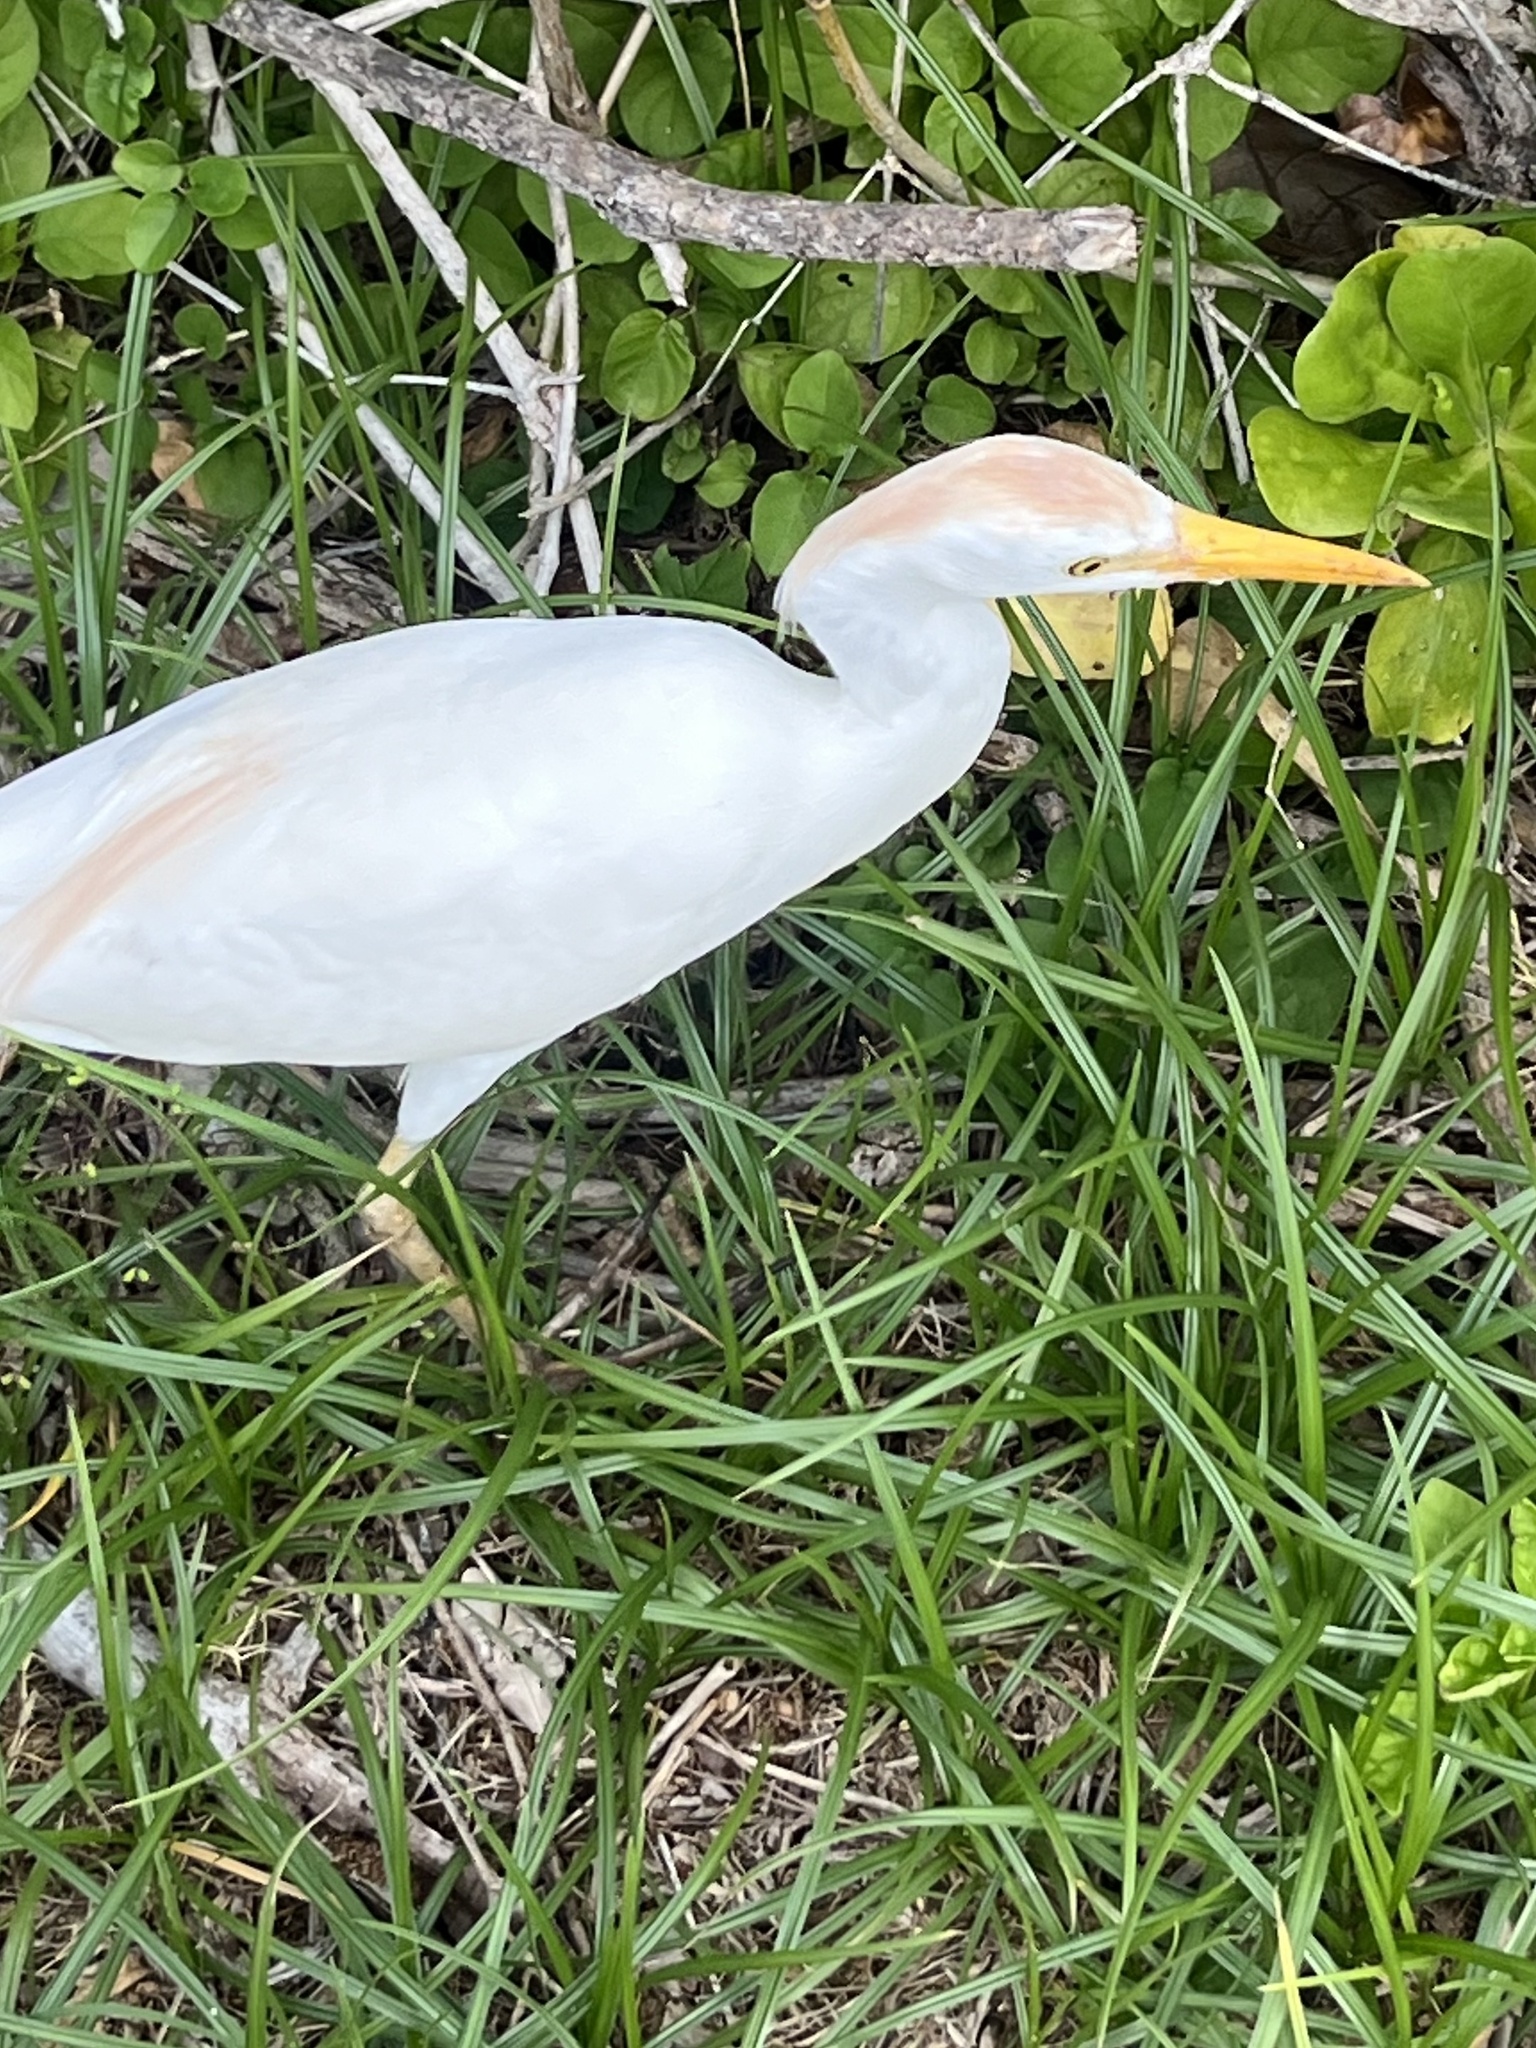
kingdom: Animalia
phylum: Chordata
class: Aves
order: Pelecaniformes
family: Ardeidae
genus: Bubulcus
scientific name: Bubulcus ibis
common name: Cattle egret
